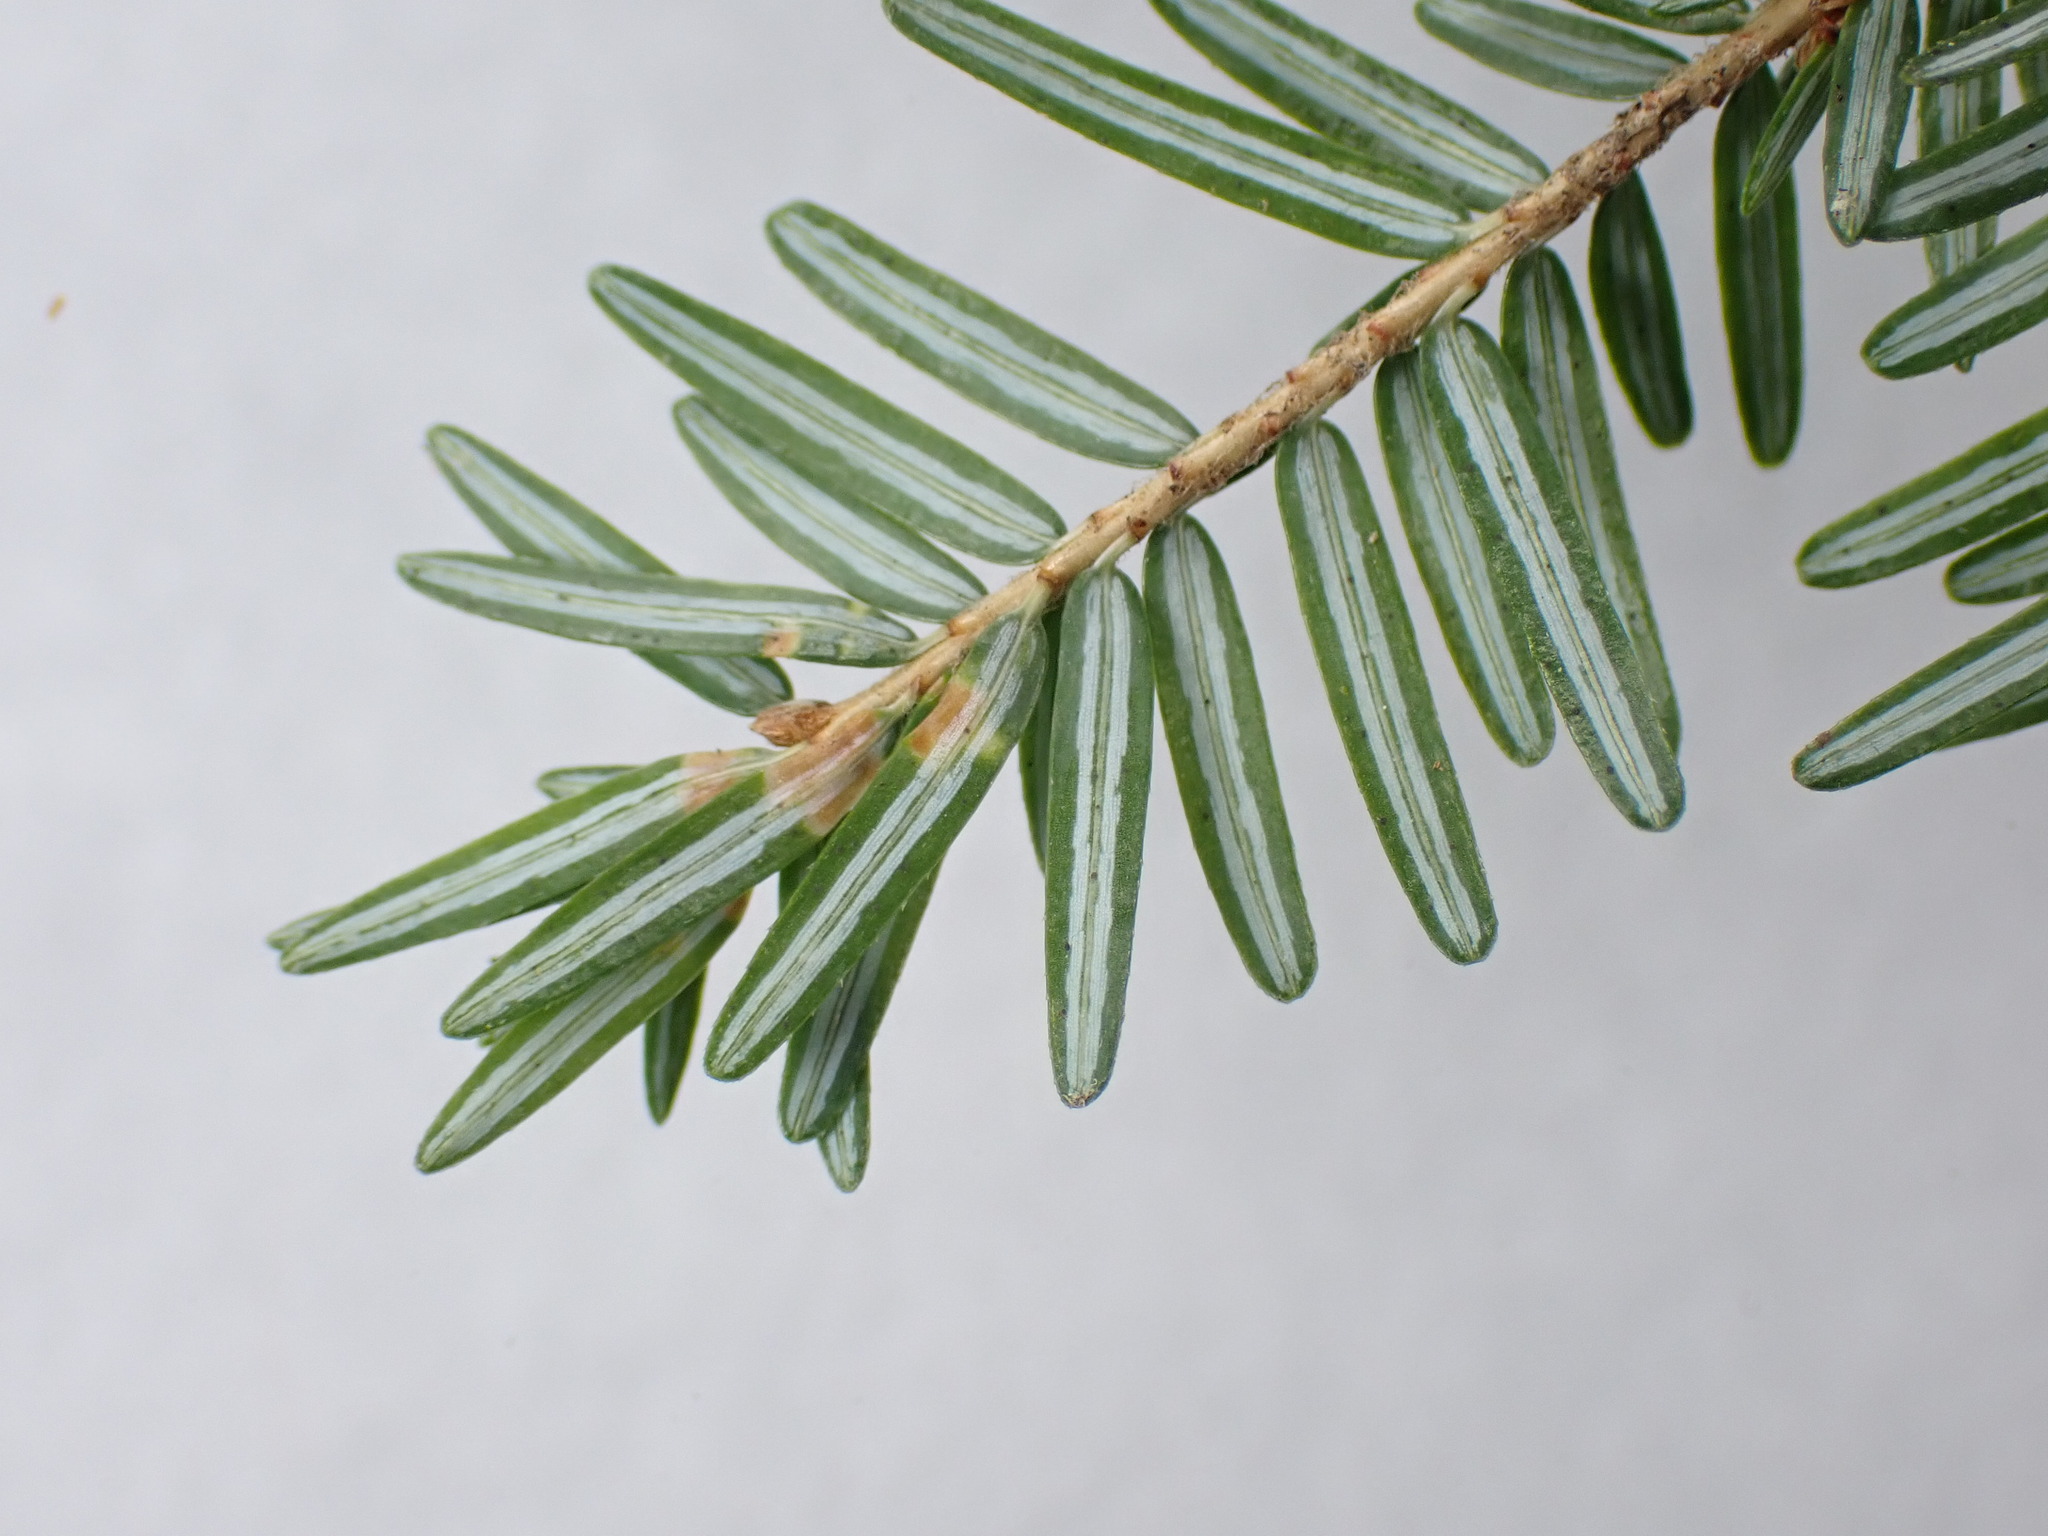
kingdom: Plantae
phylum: Tracheophyta
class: Pinopsida
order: Pinales
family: Pinaceae
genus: Tsuga
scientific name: Tsuga canadensis
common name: Eastern hemlock
